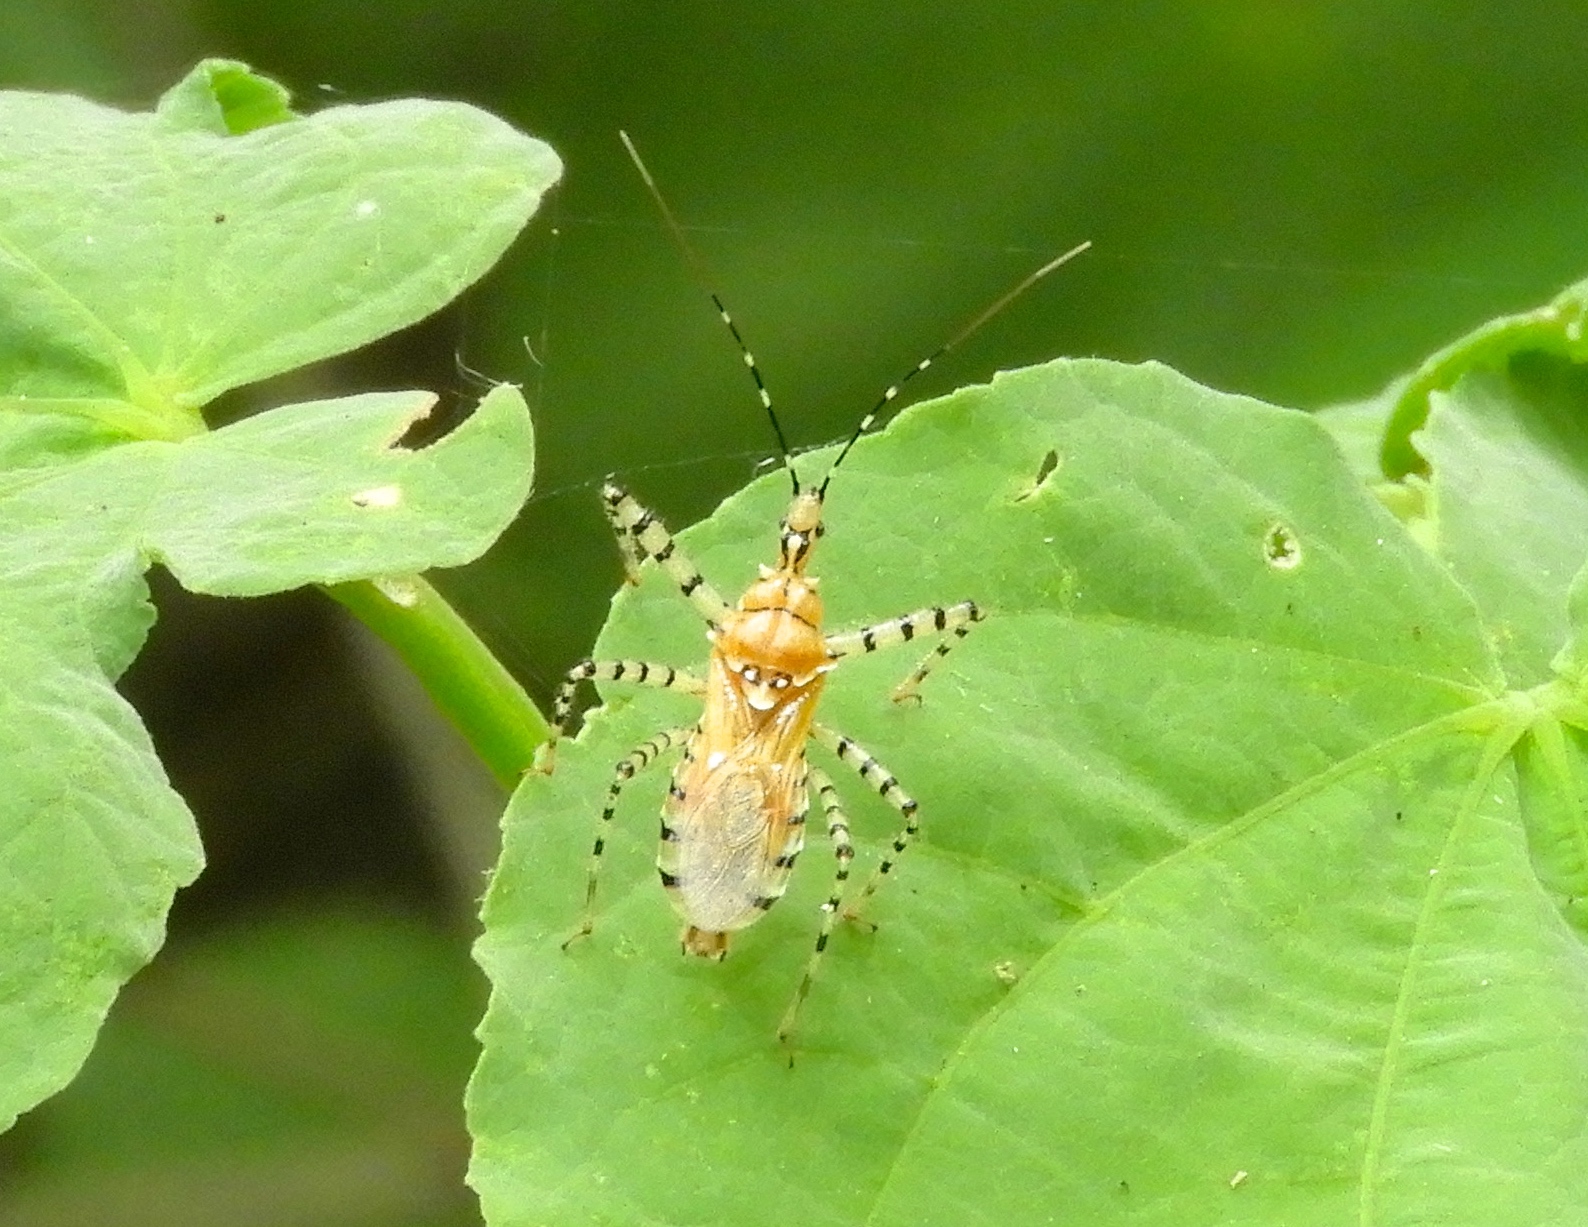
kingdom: Animalia
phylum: Arthropoda
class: Insecta
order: Hemiptera
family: Reduviidae
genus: Pselliopus
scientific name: Pselliopus latispina
